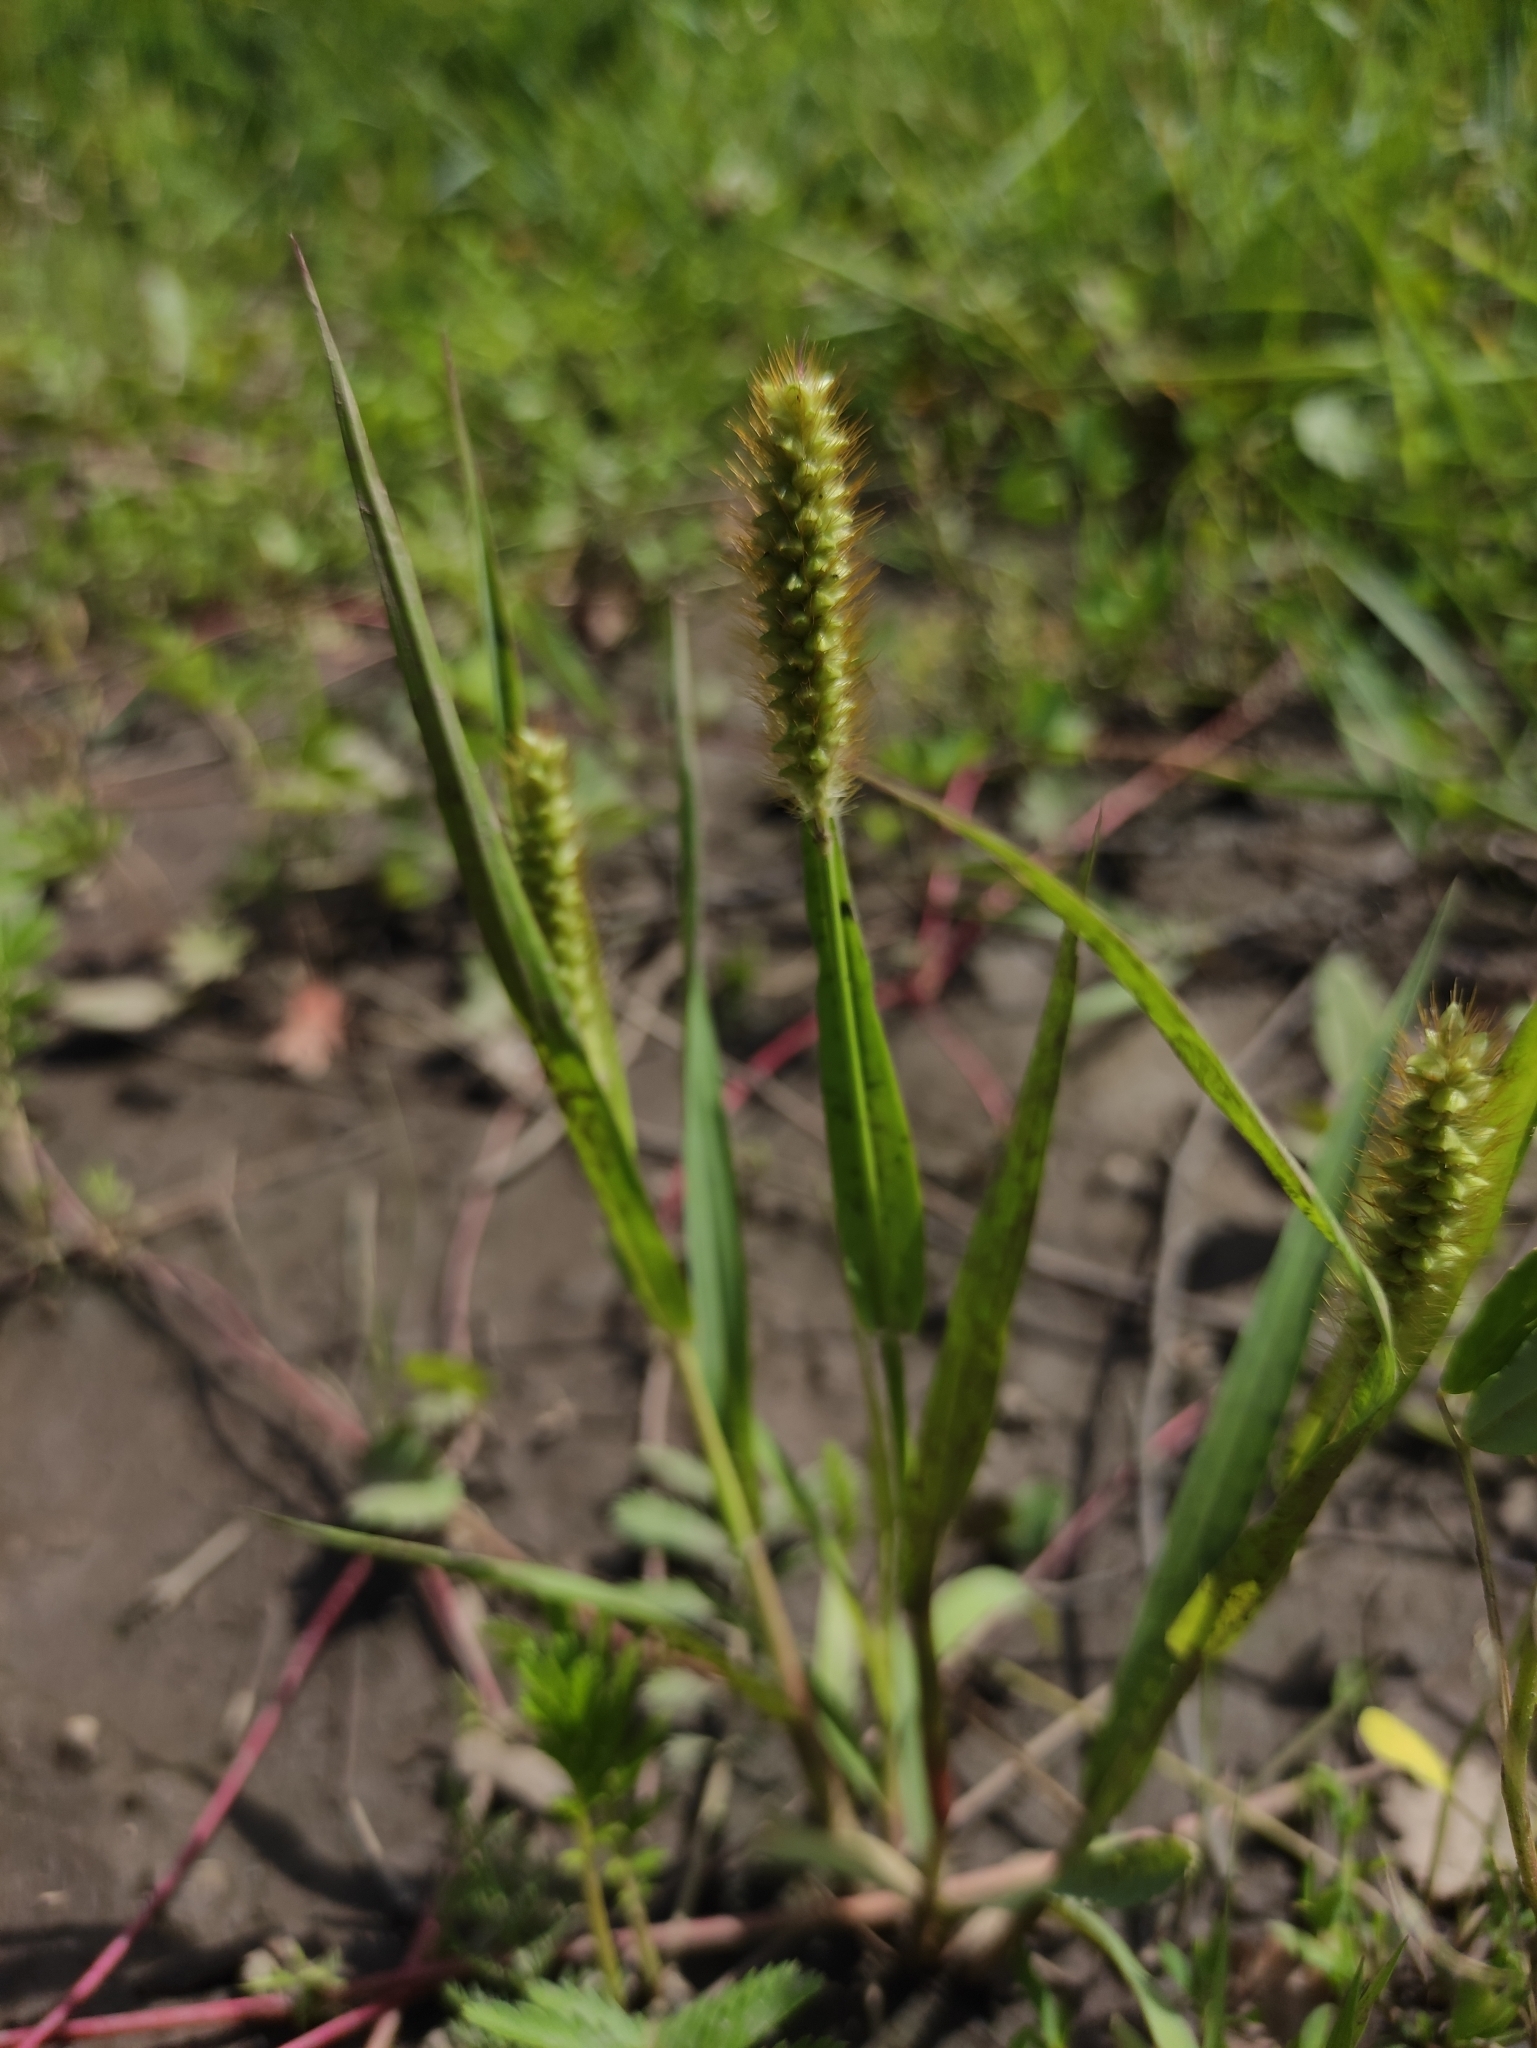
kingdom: Plantae
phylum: Tracheophyta
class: Liliopsida
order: Poales
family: Poaceae
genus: Setaria
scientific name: Setaria pumila
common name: Yellow bristle-grass
